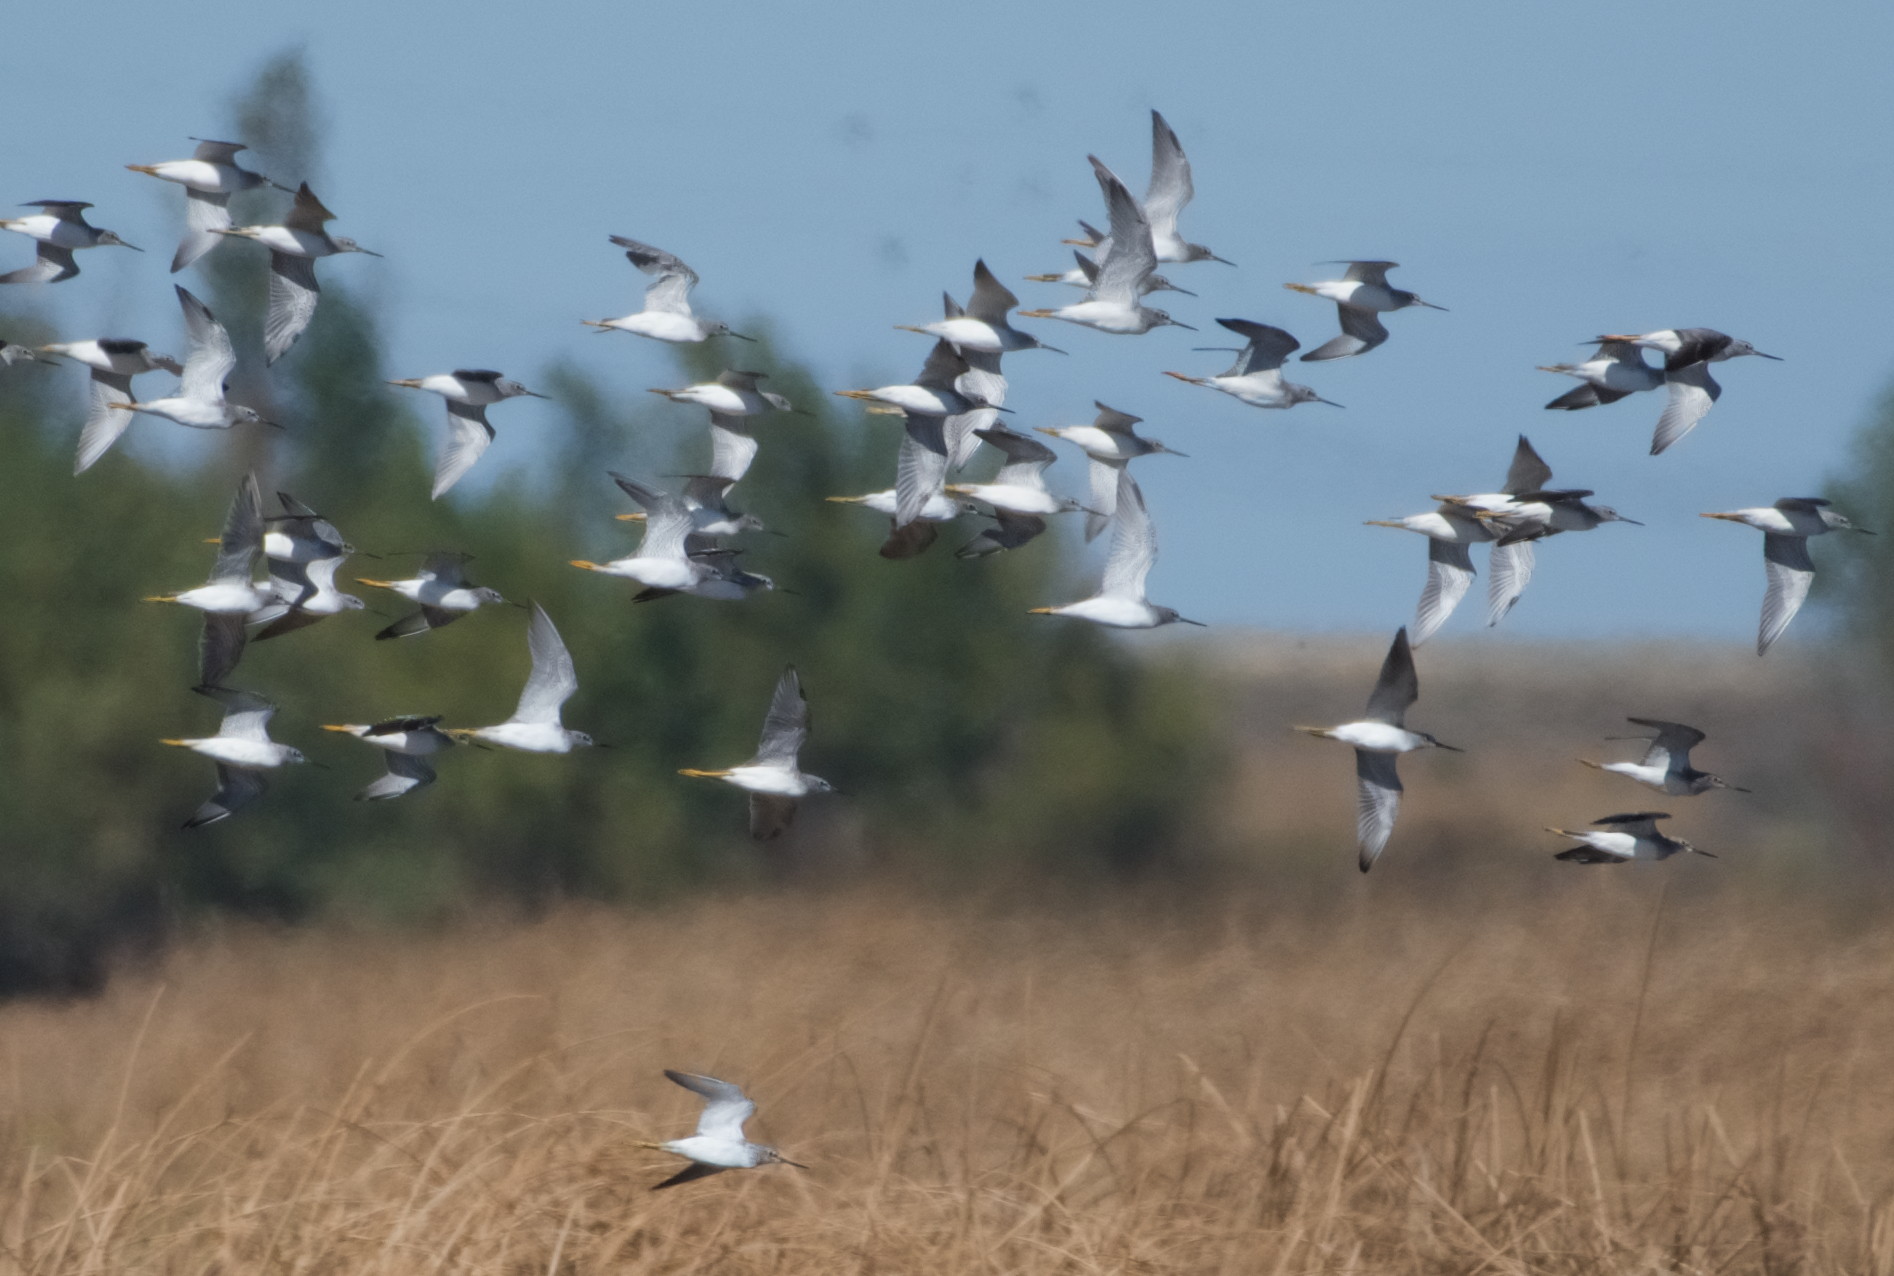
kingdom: Animalia
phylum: Chordata
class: Aves
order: Charadriiformes
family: Scolopacidae
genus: Tringa
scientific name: Tringa melanoleuca
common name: Greater yellowlegs
